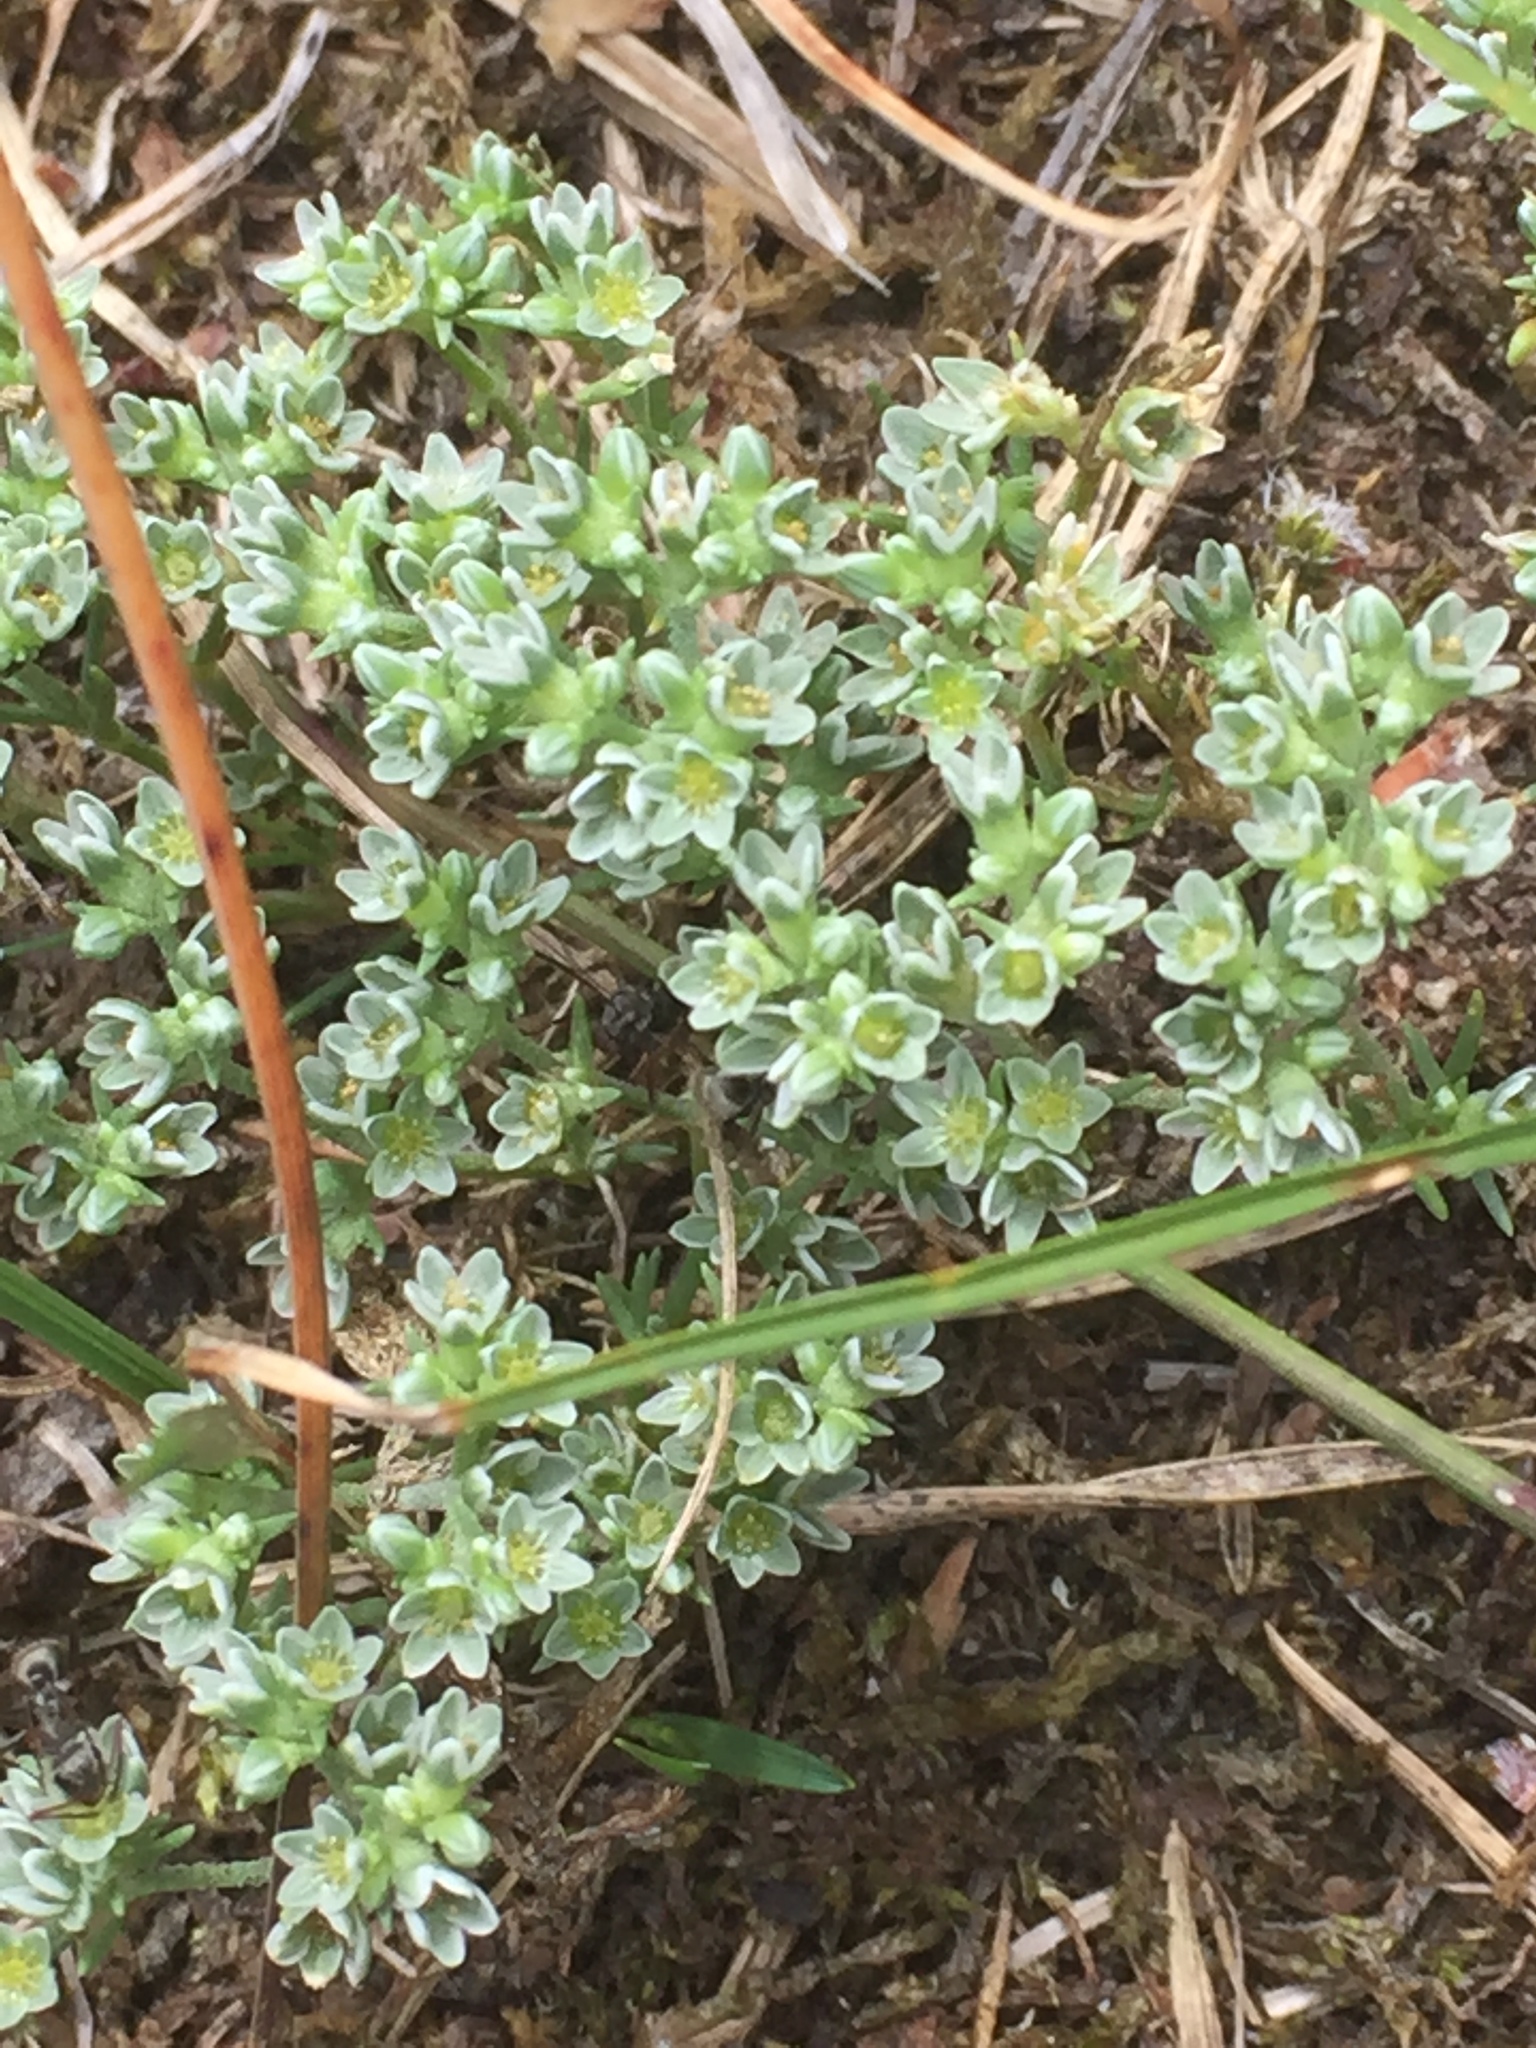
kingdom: Plantae
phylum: Tracheophyta
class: Magnoliopsida
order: Caryophyllales
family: Caryophyllaceae
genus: Scleranthus
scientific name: Scleranthus perennis
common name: Perennial knawel
